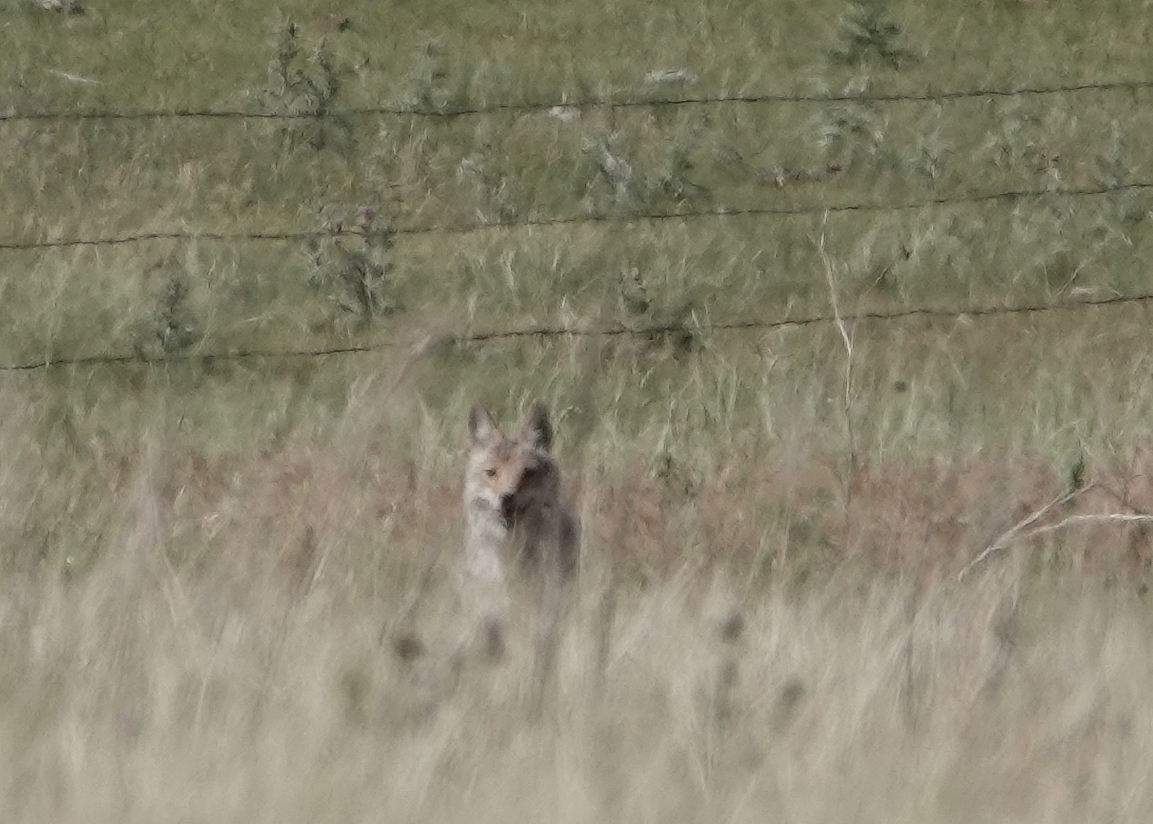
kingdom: Animalia
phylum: Chordata
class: Mammalia
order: Carnivora
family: Canidae
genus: Canis
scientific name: Canis latrans
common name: Coyote
